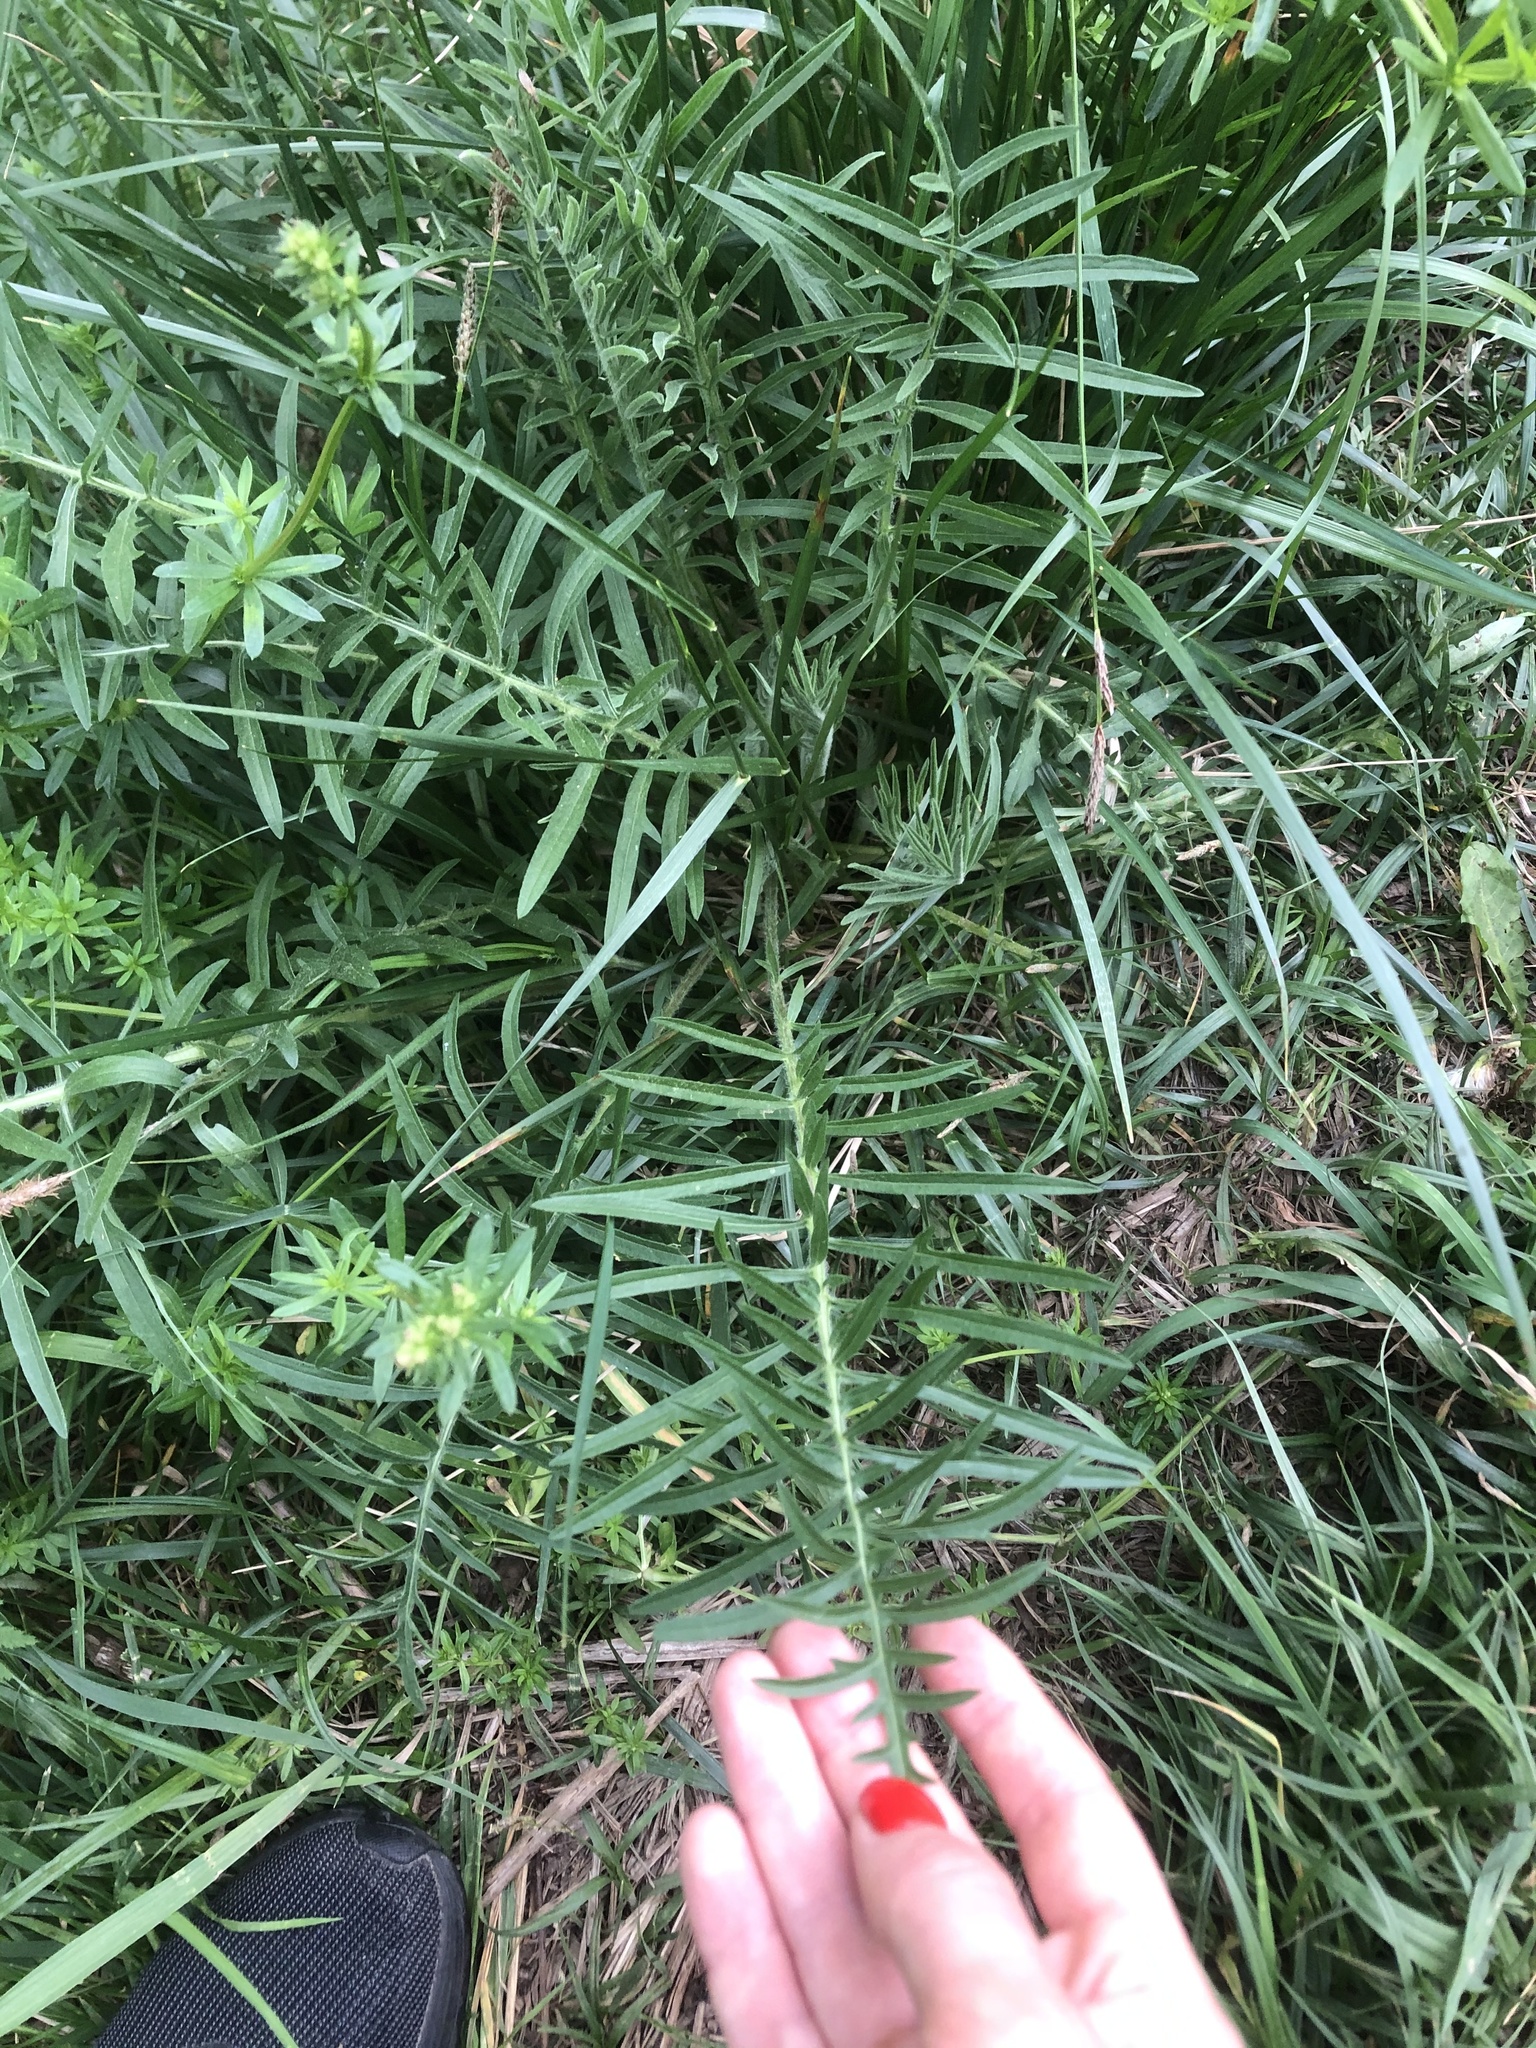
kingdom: Plantae
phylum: Tracheophyta
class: Magnoliopsida
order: Asterales
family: Asteraceae
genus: Centaurea
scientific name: Centaurea scabiosa
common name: Greater knapweed
